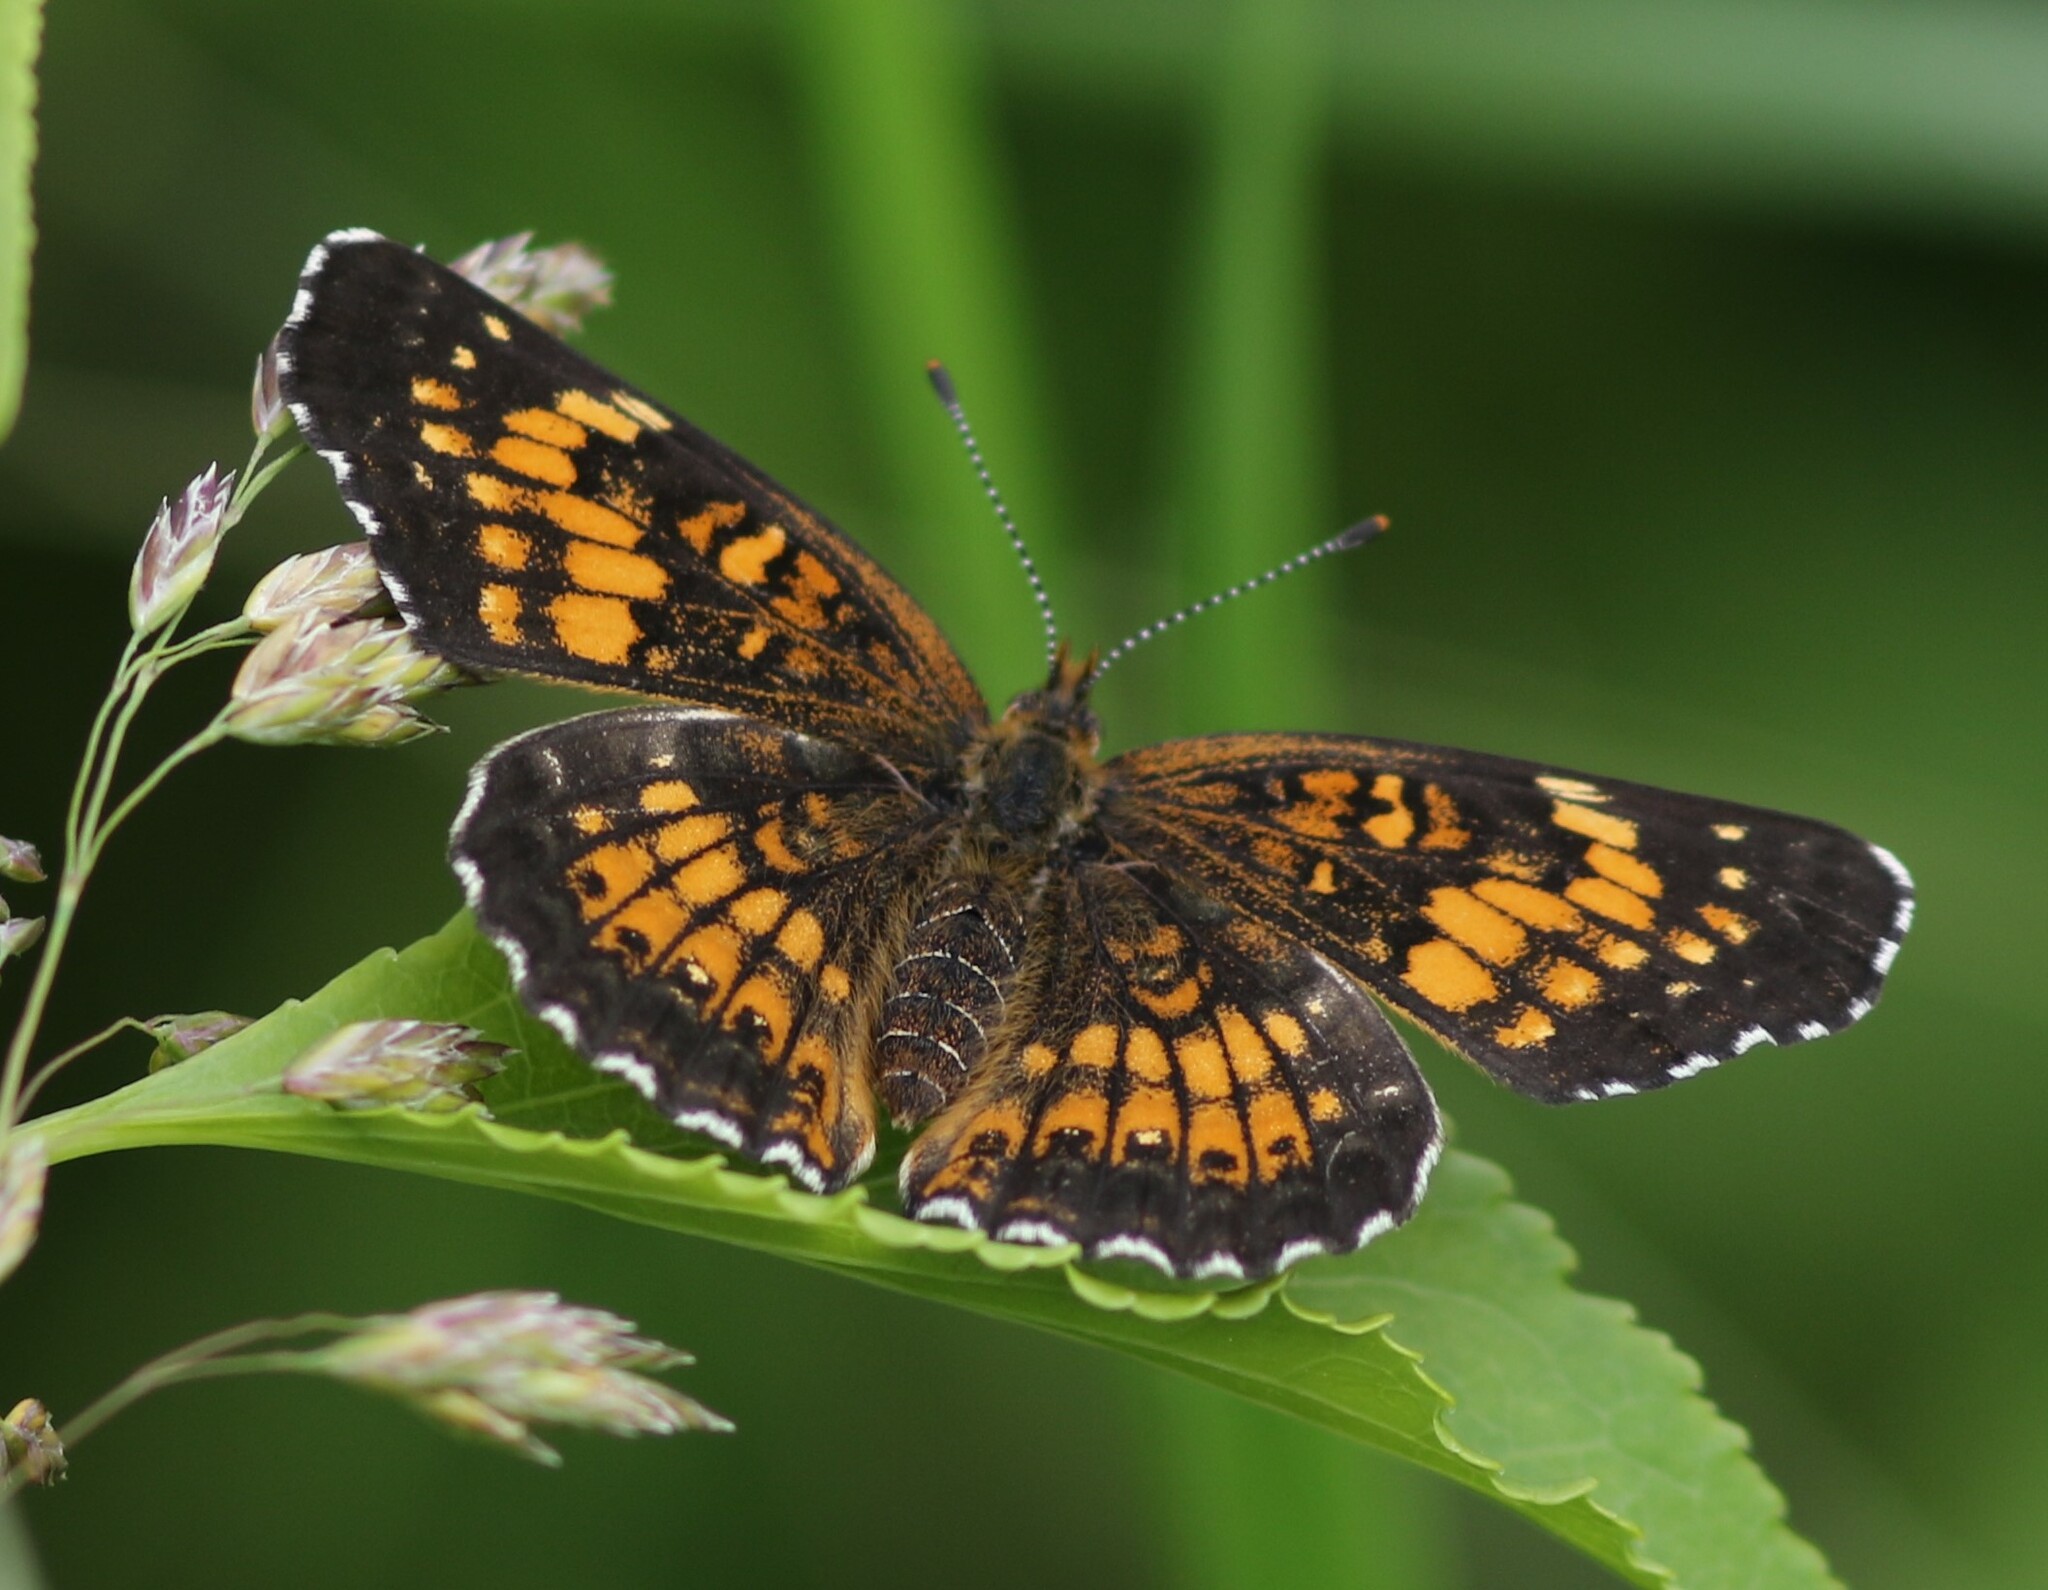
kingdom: Animalia
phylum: Arthropoda
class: Insecta
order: Lepidoptera
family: Nymphalidae
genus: Chlosyne
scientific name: Chlosyne harrisii
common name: Harris's checkerspot
